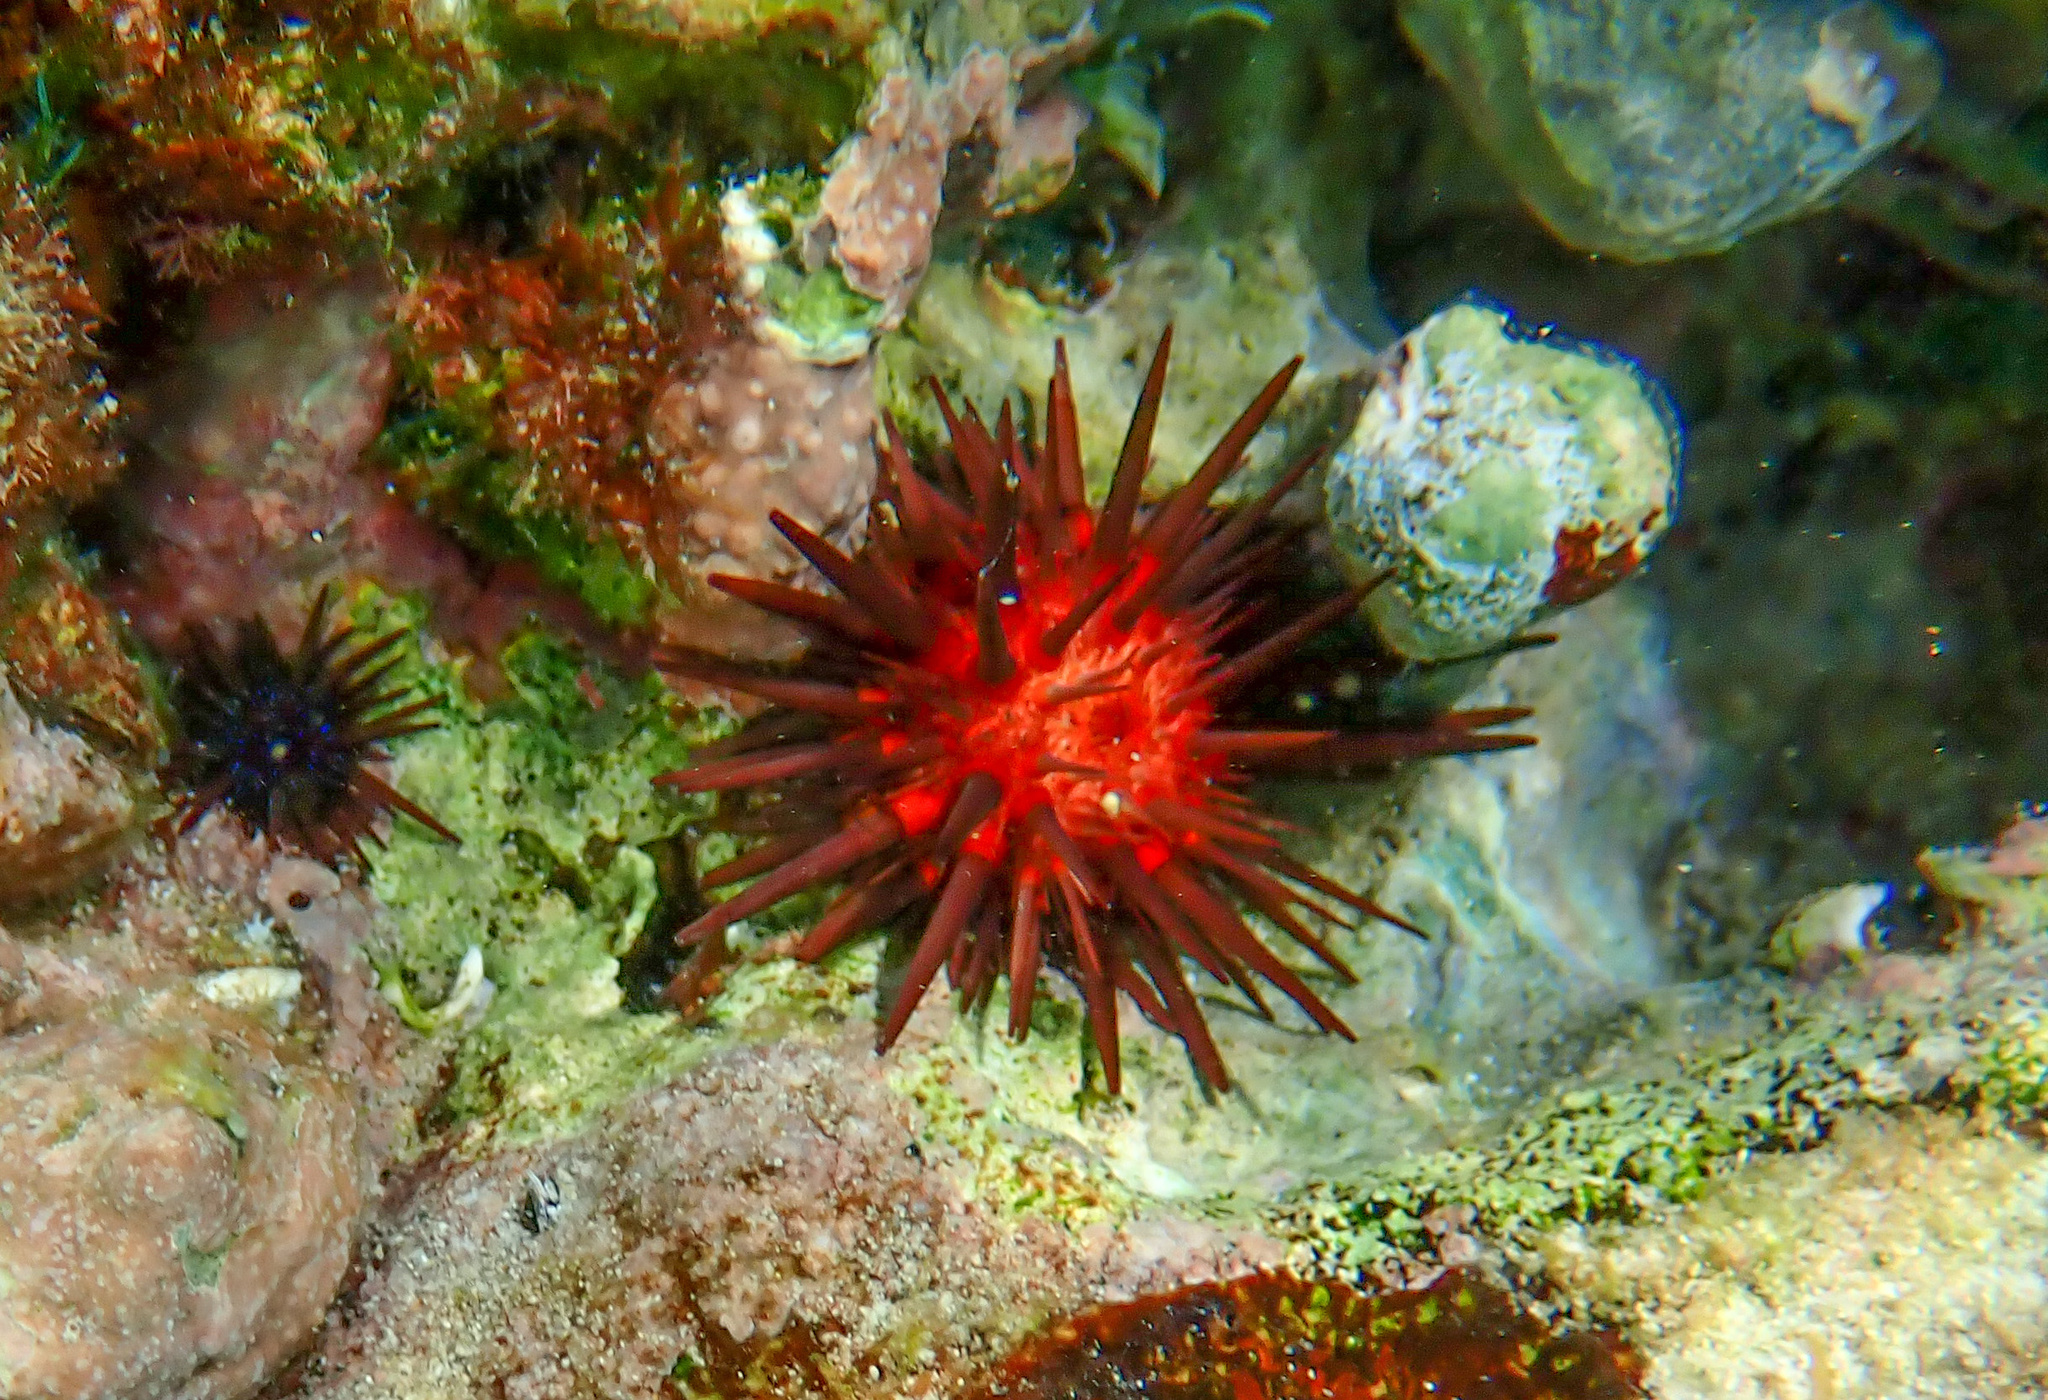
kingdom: Animalia
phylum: Echinodermata
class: Echinoidea
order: Camarodonta
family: Echinometridae
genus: Echinometra
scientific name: Echinometra lucunter
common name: Rock urchin
